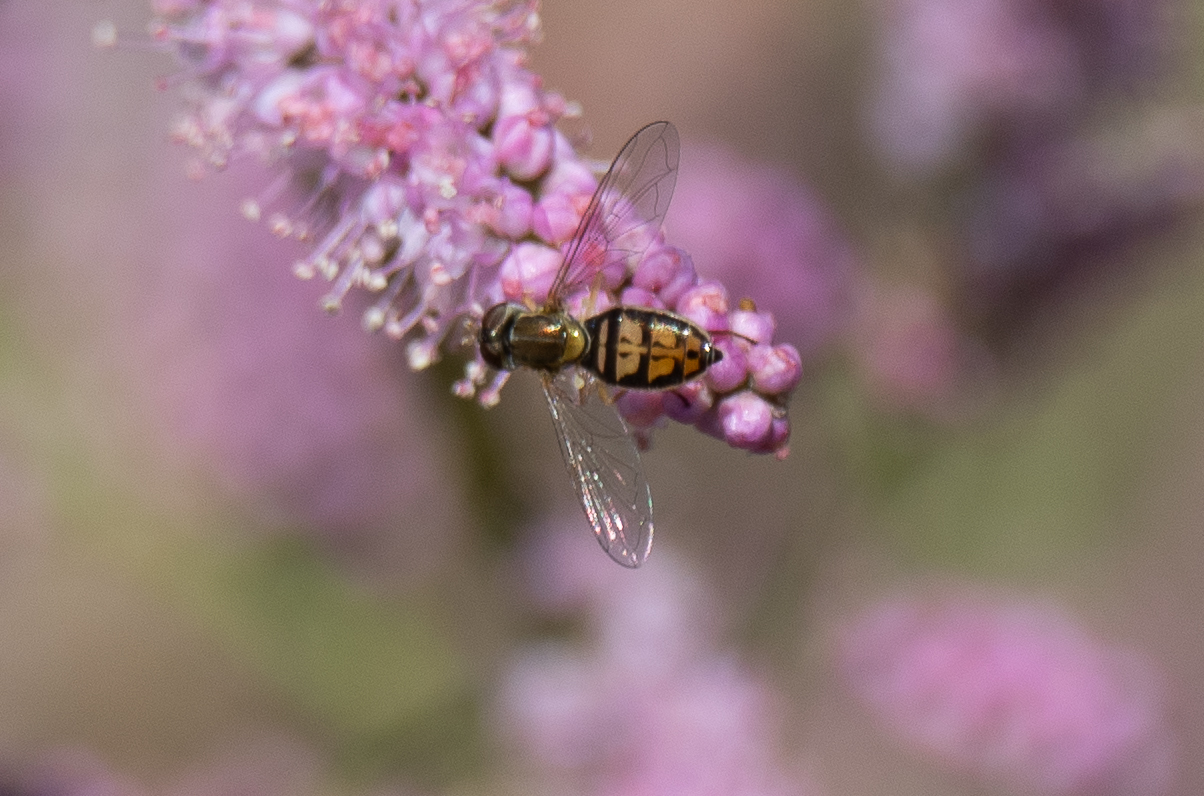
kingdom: Animalia
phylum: Arthropoda
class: Insecta
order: Diptera
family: Syrphidae
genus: Toxomerus
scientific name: Toxomerus marginatus
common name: Syrphid fly
